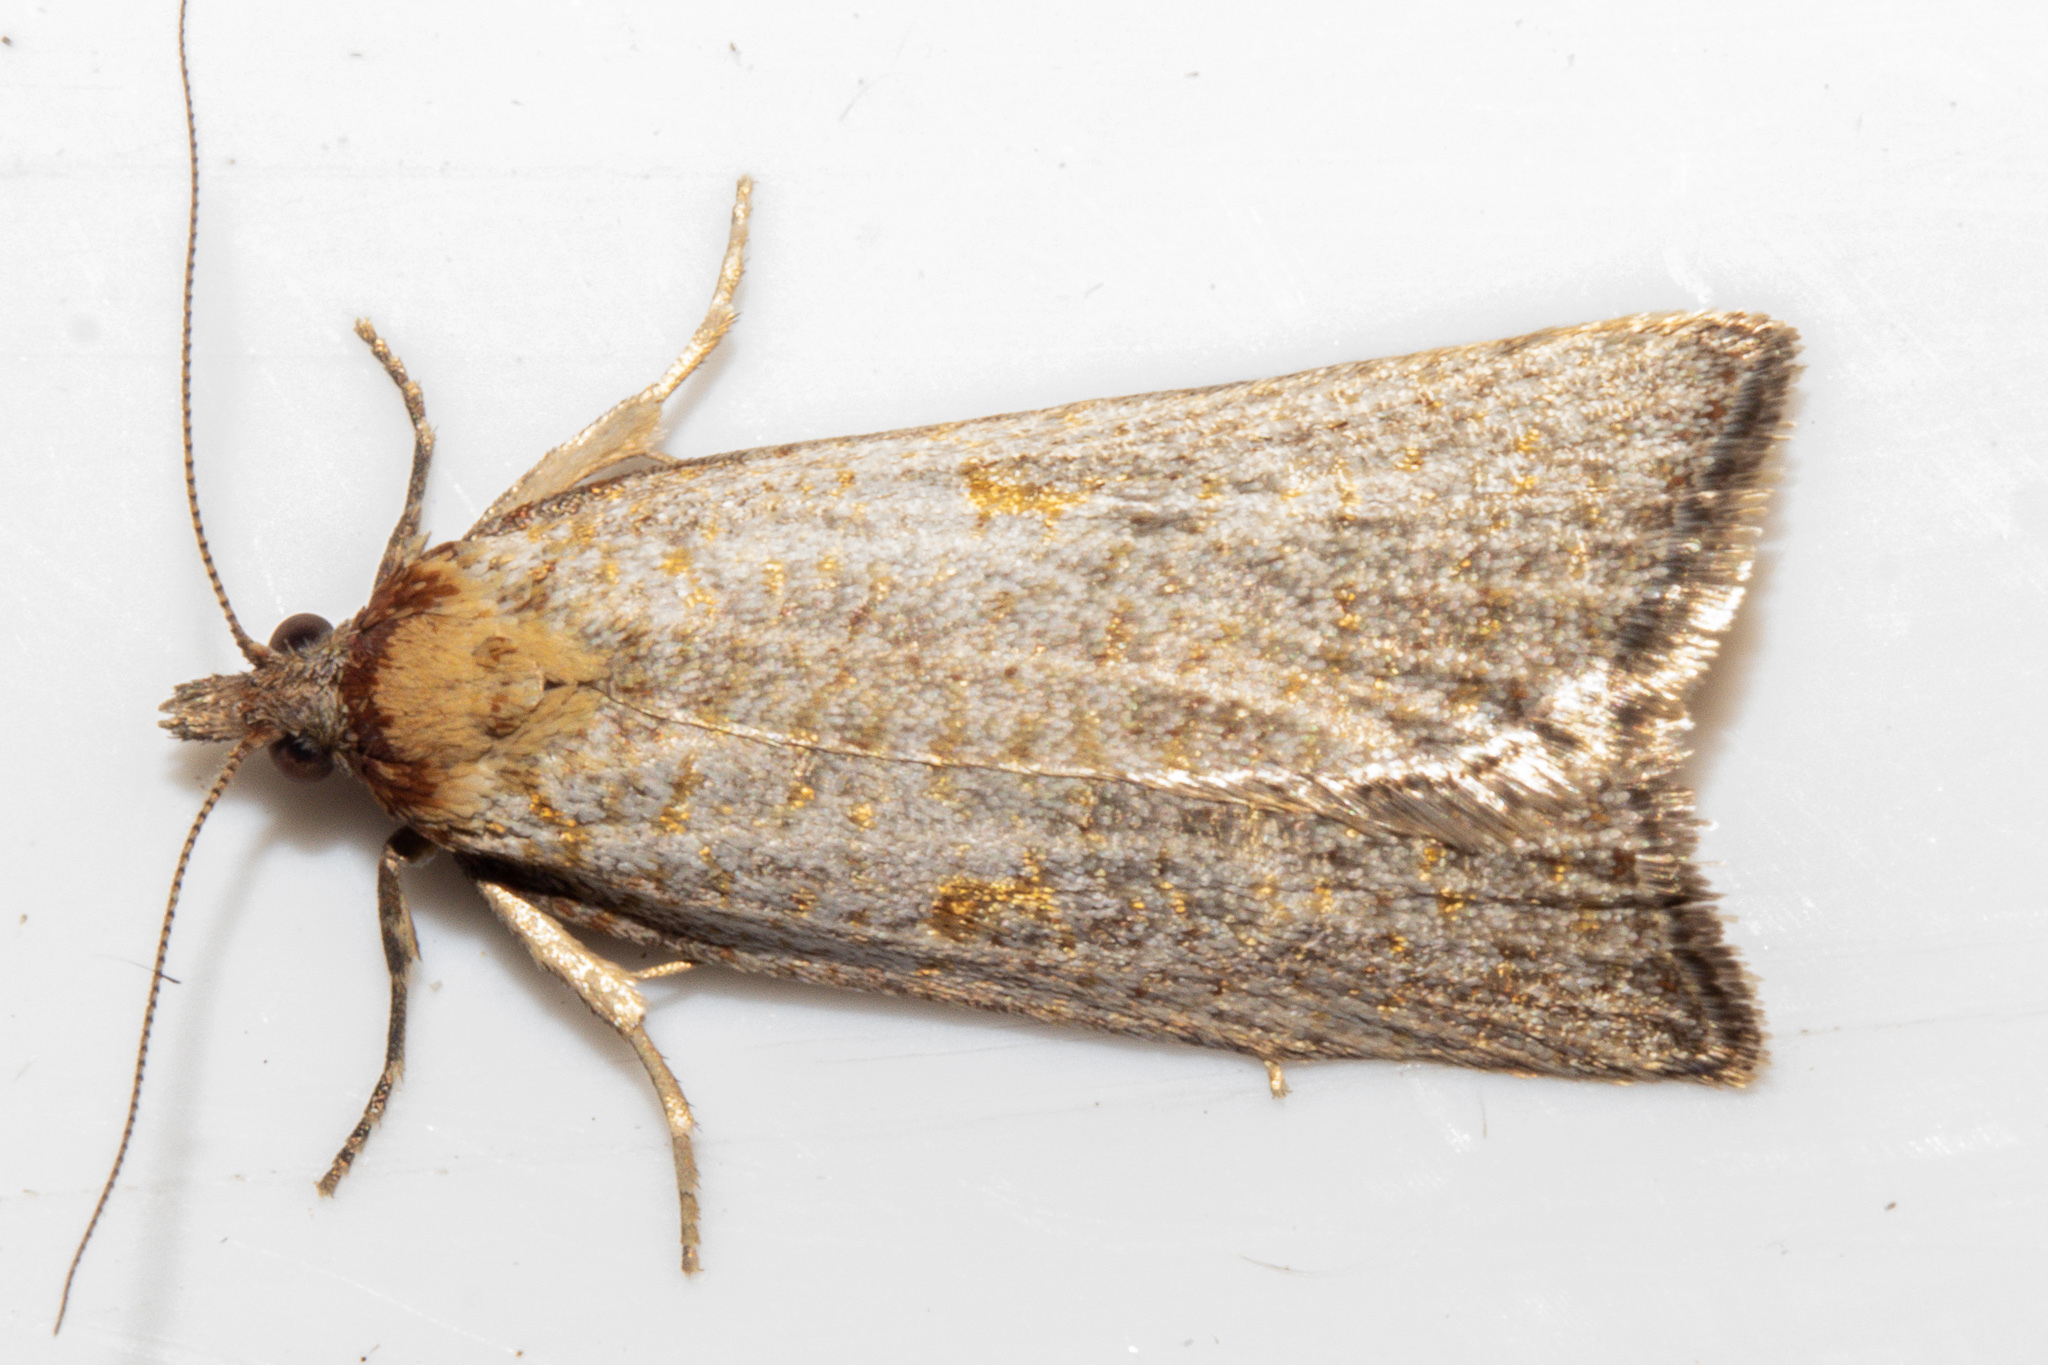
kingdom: Animalia
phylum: Arthropoda
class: Insecta
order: Lepidoptera
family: Tortricidae
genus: Tortrix
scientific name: Tortrix demiana
